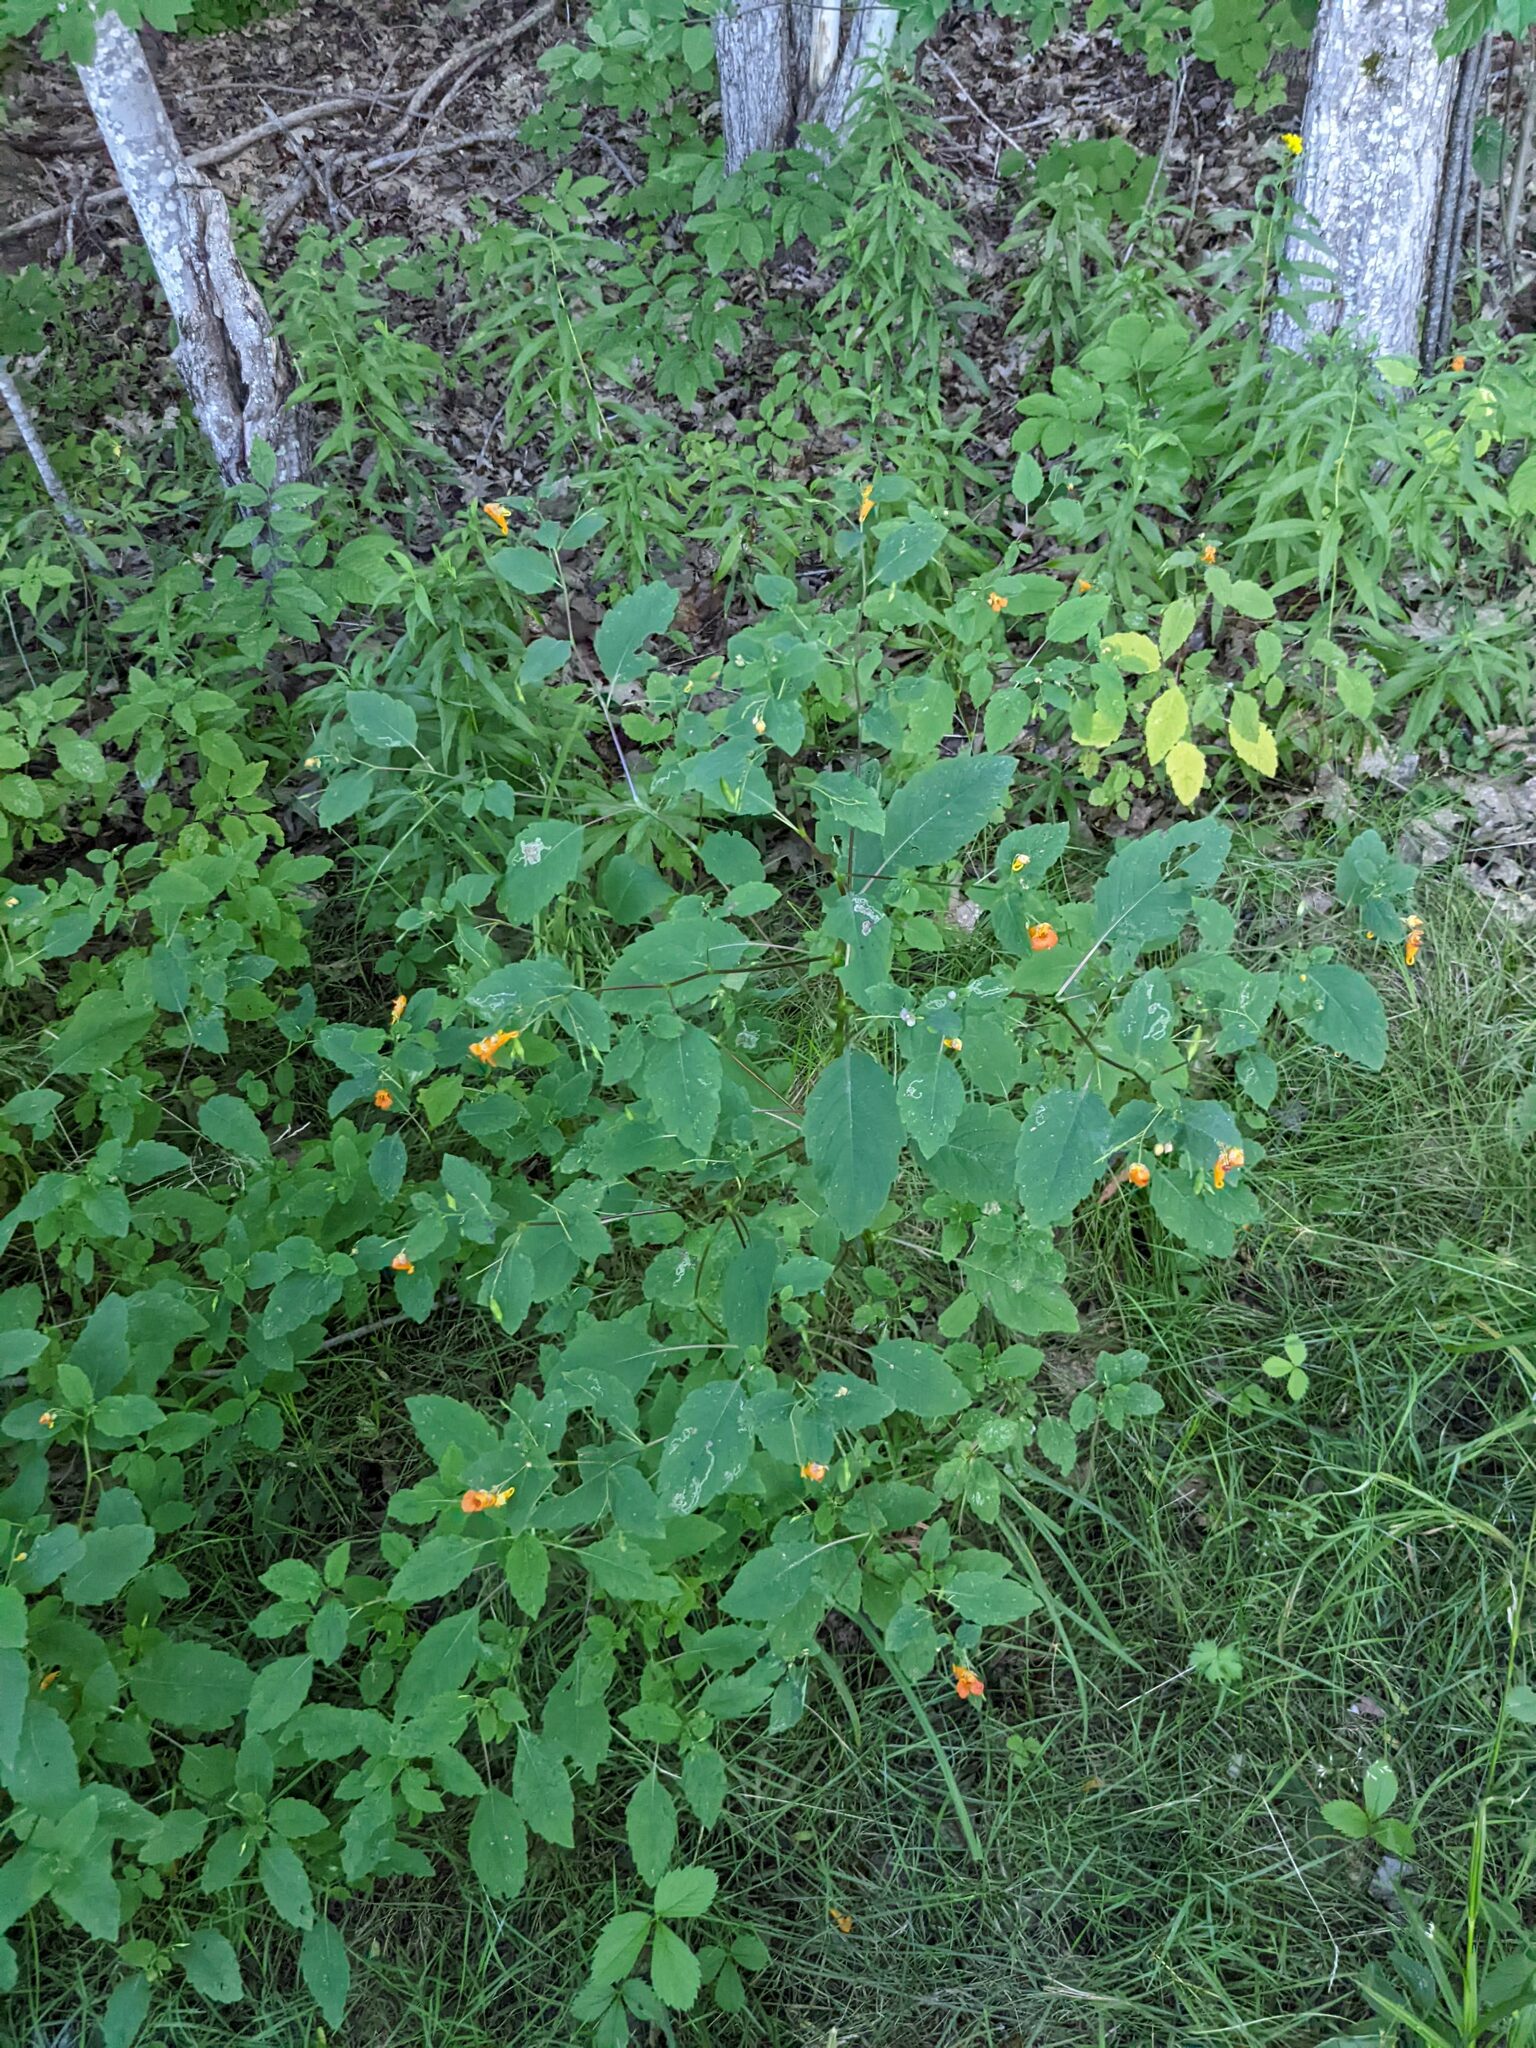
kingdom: Plantae
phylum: Tracheophyta
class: Magnoliopsida
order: Ericales
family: Balsaminaceae
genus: Impatiens
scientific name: Impatiens capensis
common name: Orange balsam
